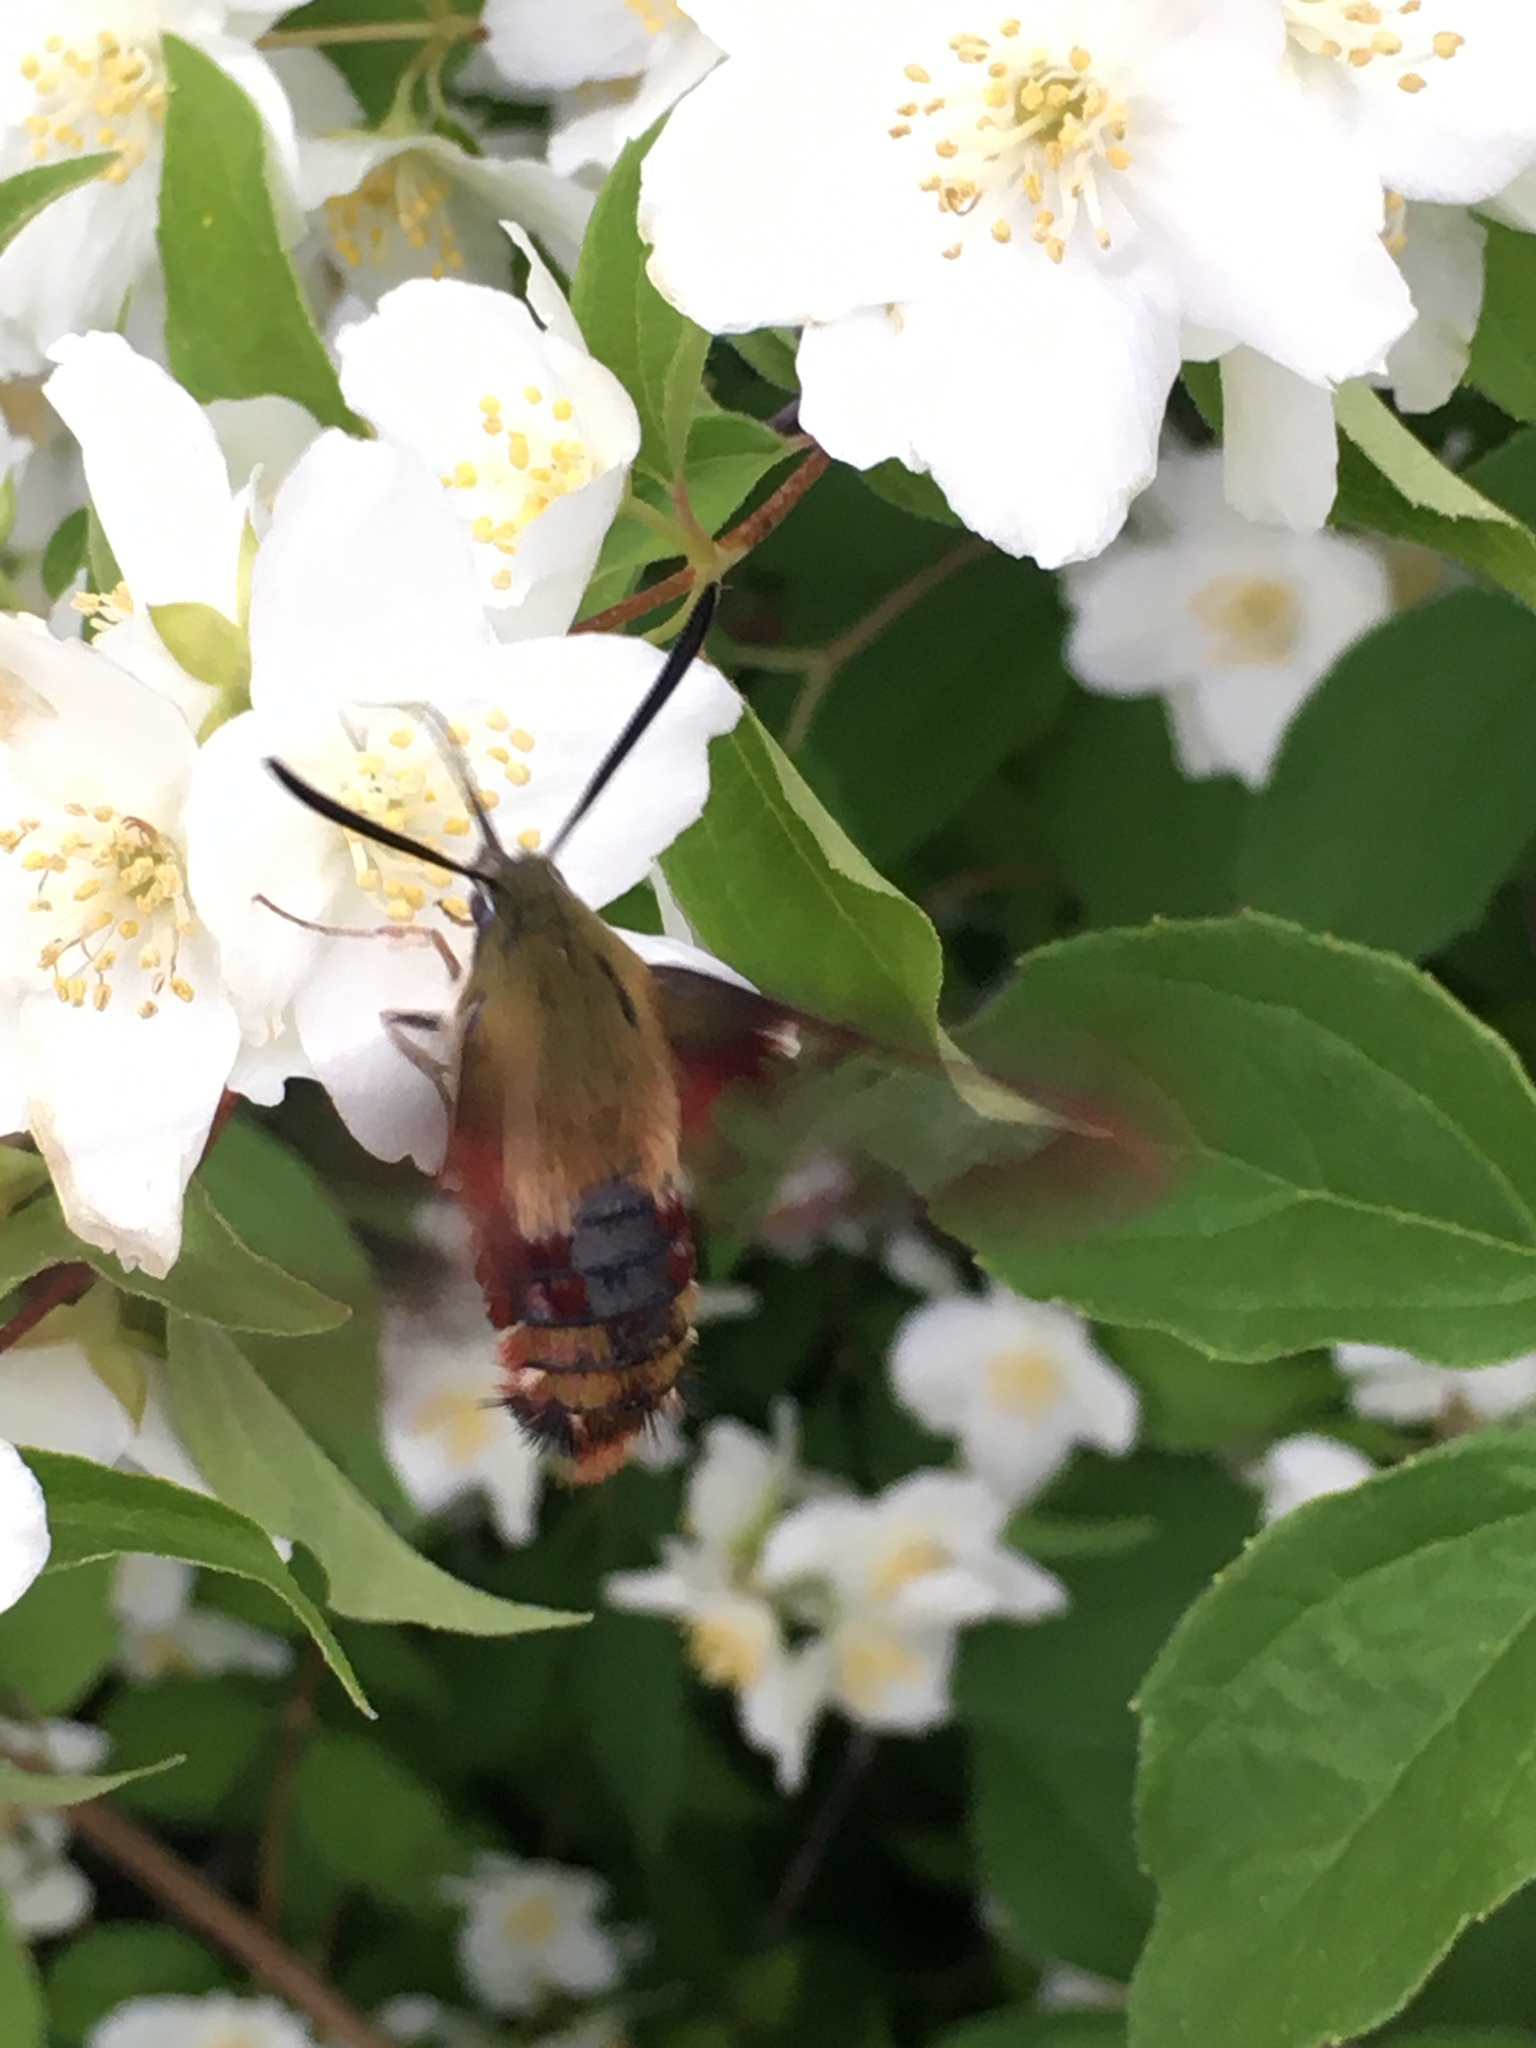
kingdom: Animalia
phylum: Arthropoda
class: Insecta
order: Lepidoptera
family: Sphingidae
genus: Hemaris
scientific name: Hemaris thysbe
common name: Common clear-wing
